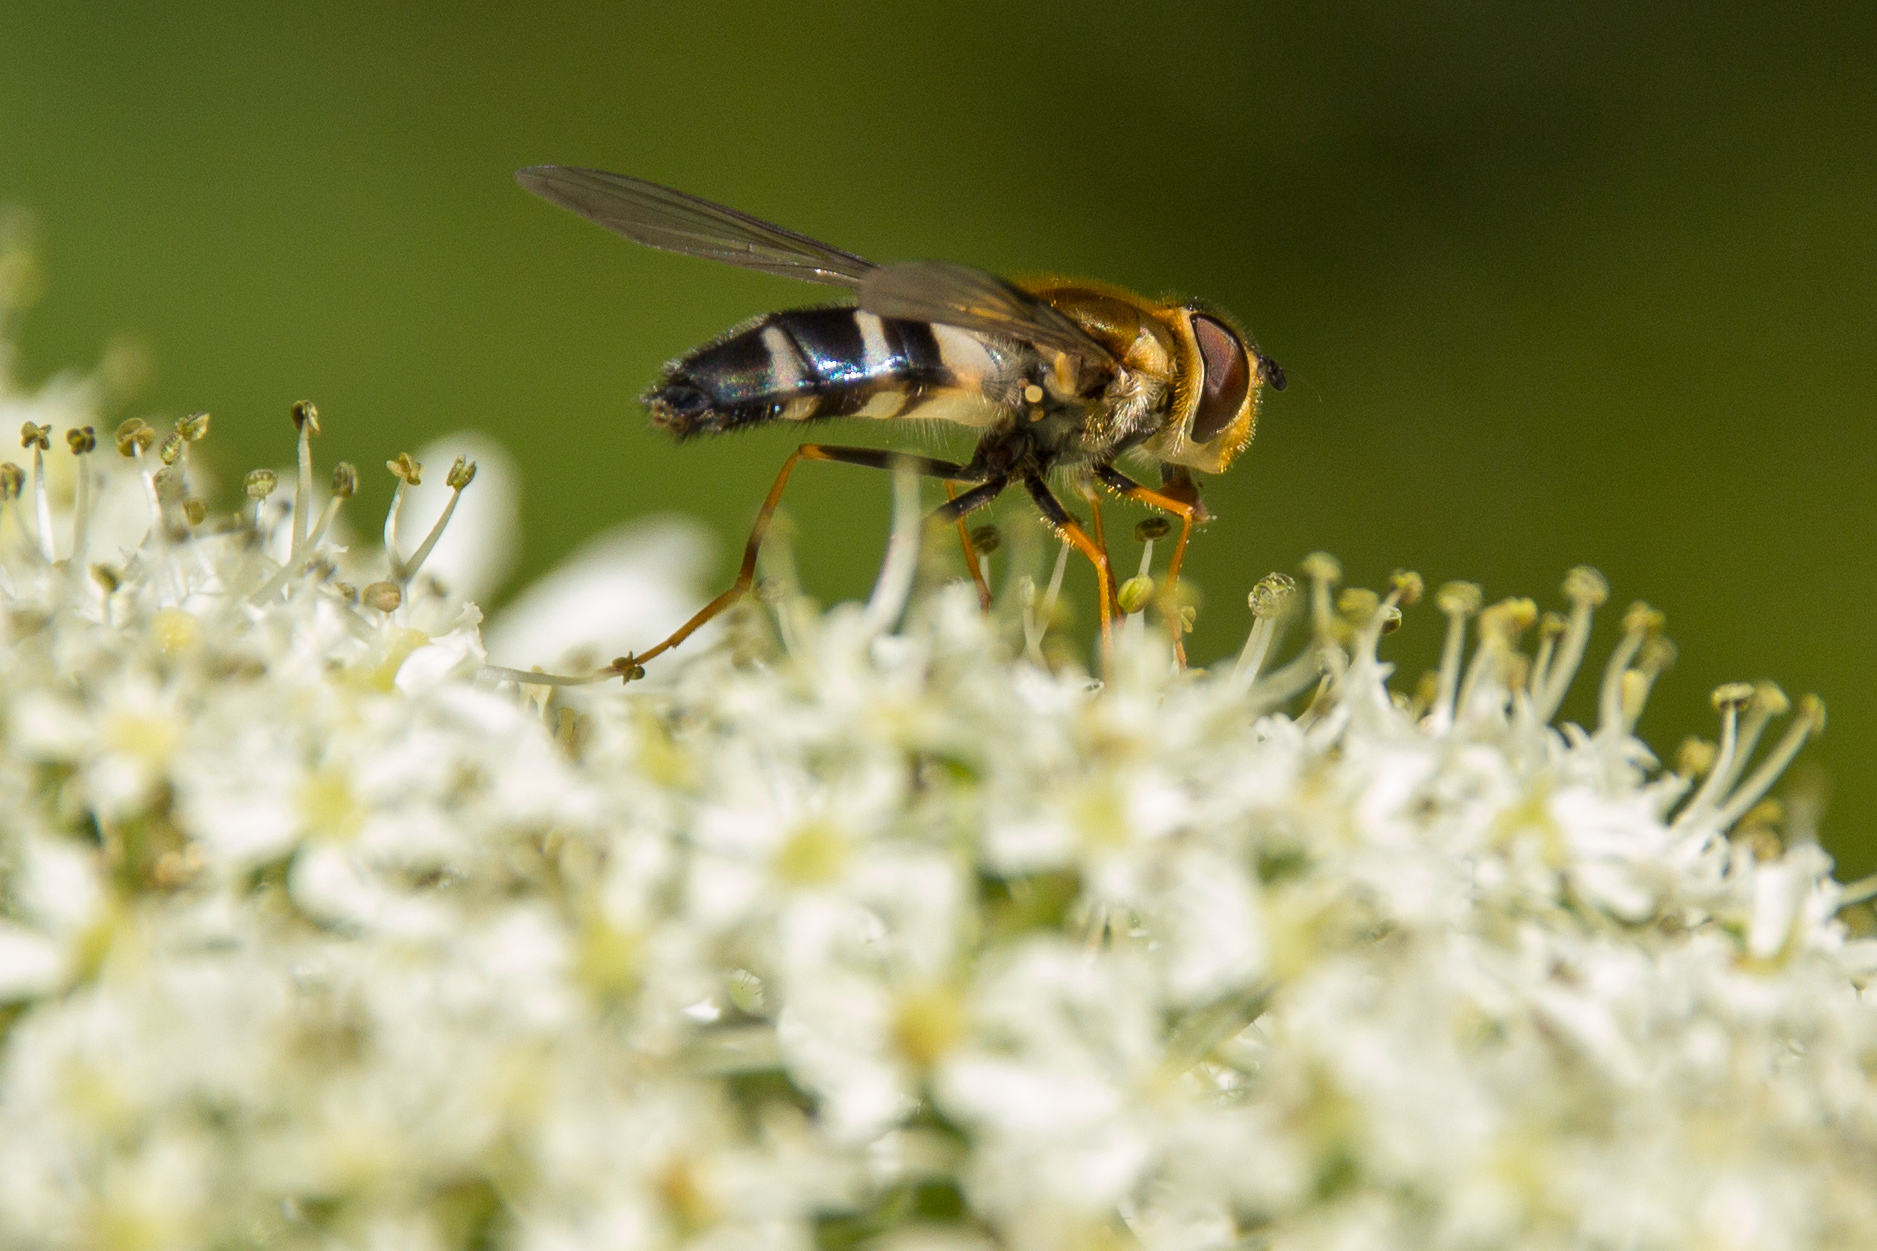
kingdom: Animalia
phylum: Arthropoda
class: Insecta
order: Diptera
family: Syrphidae
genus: Leucozona
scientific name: Leucozona glaucia
